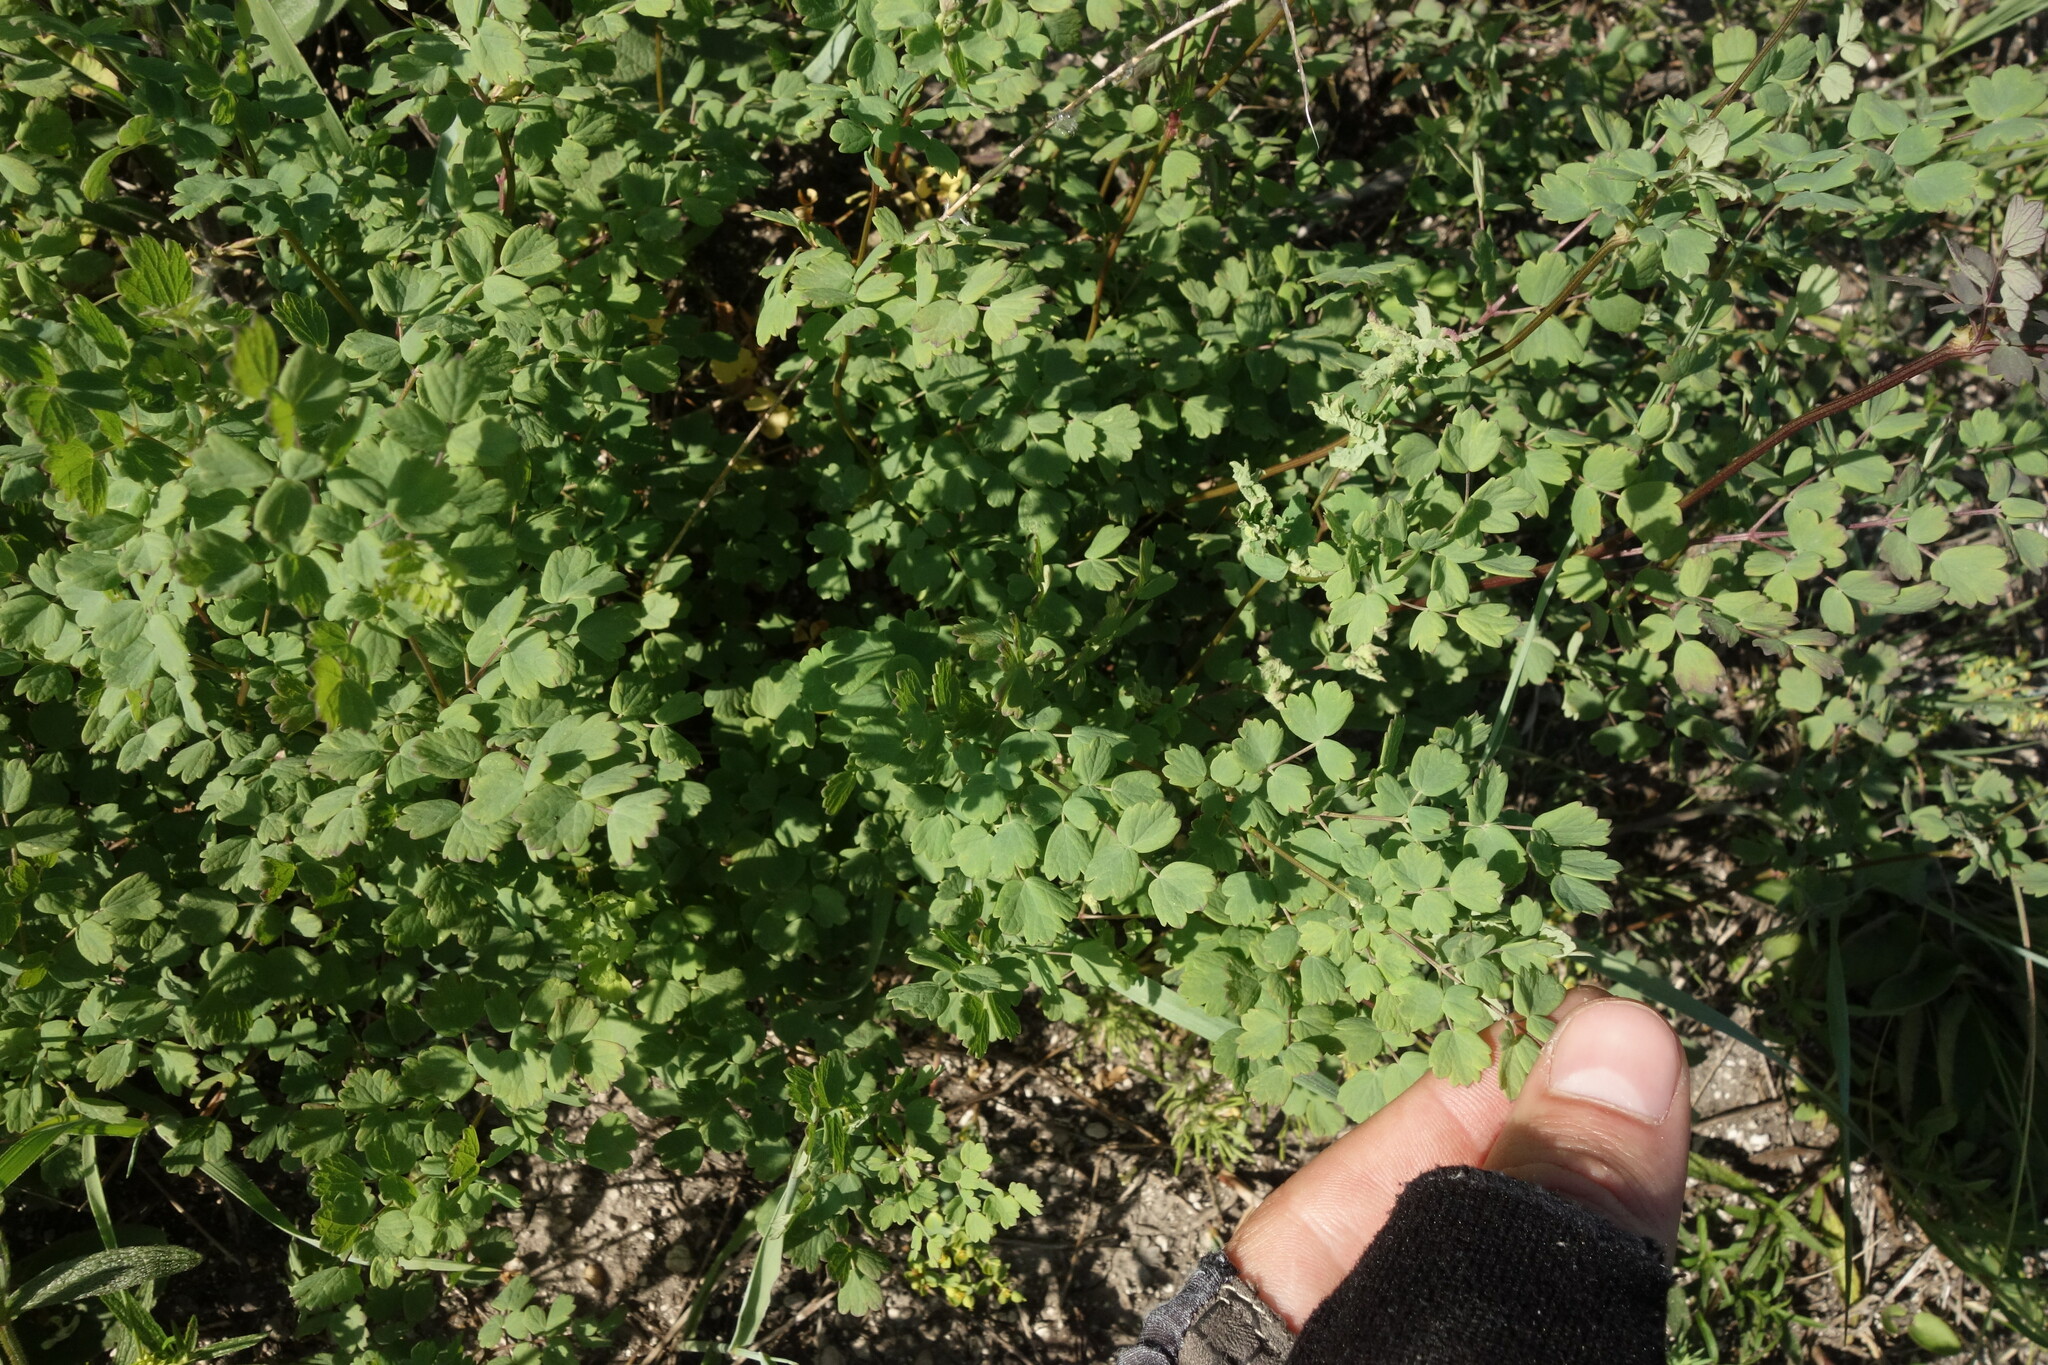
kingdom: Plantae
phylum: Tracheophyta
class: Magnoliopsida
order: Ranunculales
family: Ranunculaceae
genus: Thalictrum
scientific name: Thalictrum minus
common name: Lesser meadow-rue
